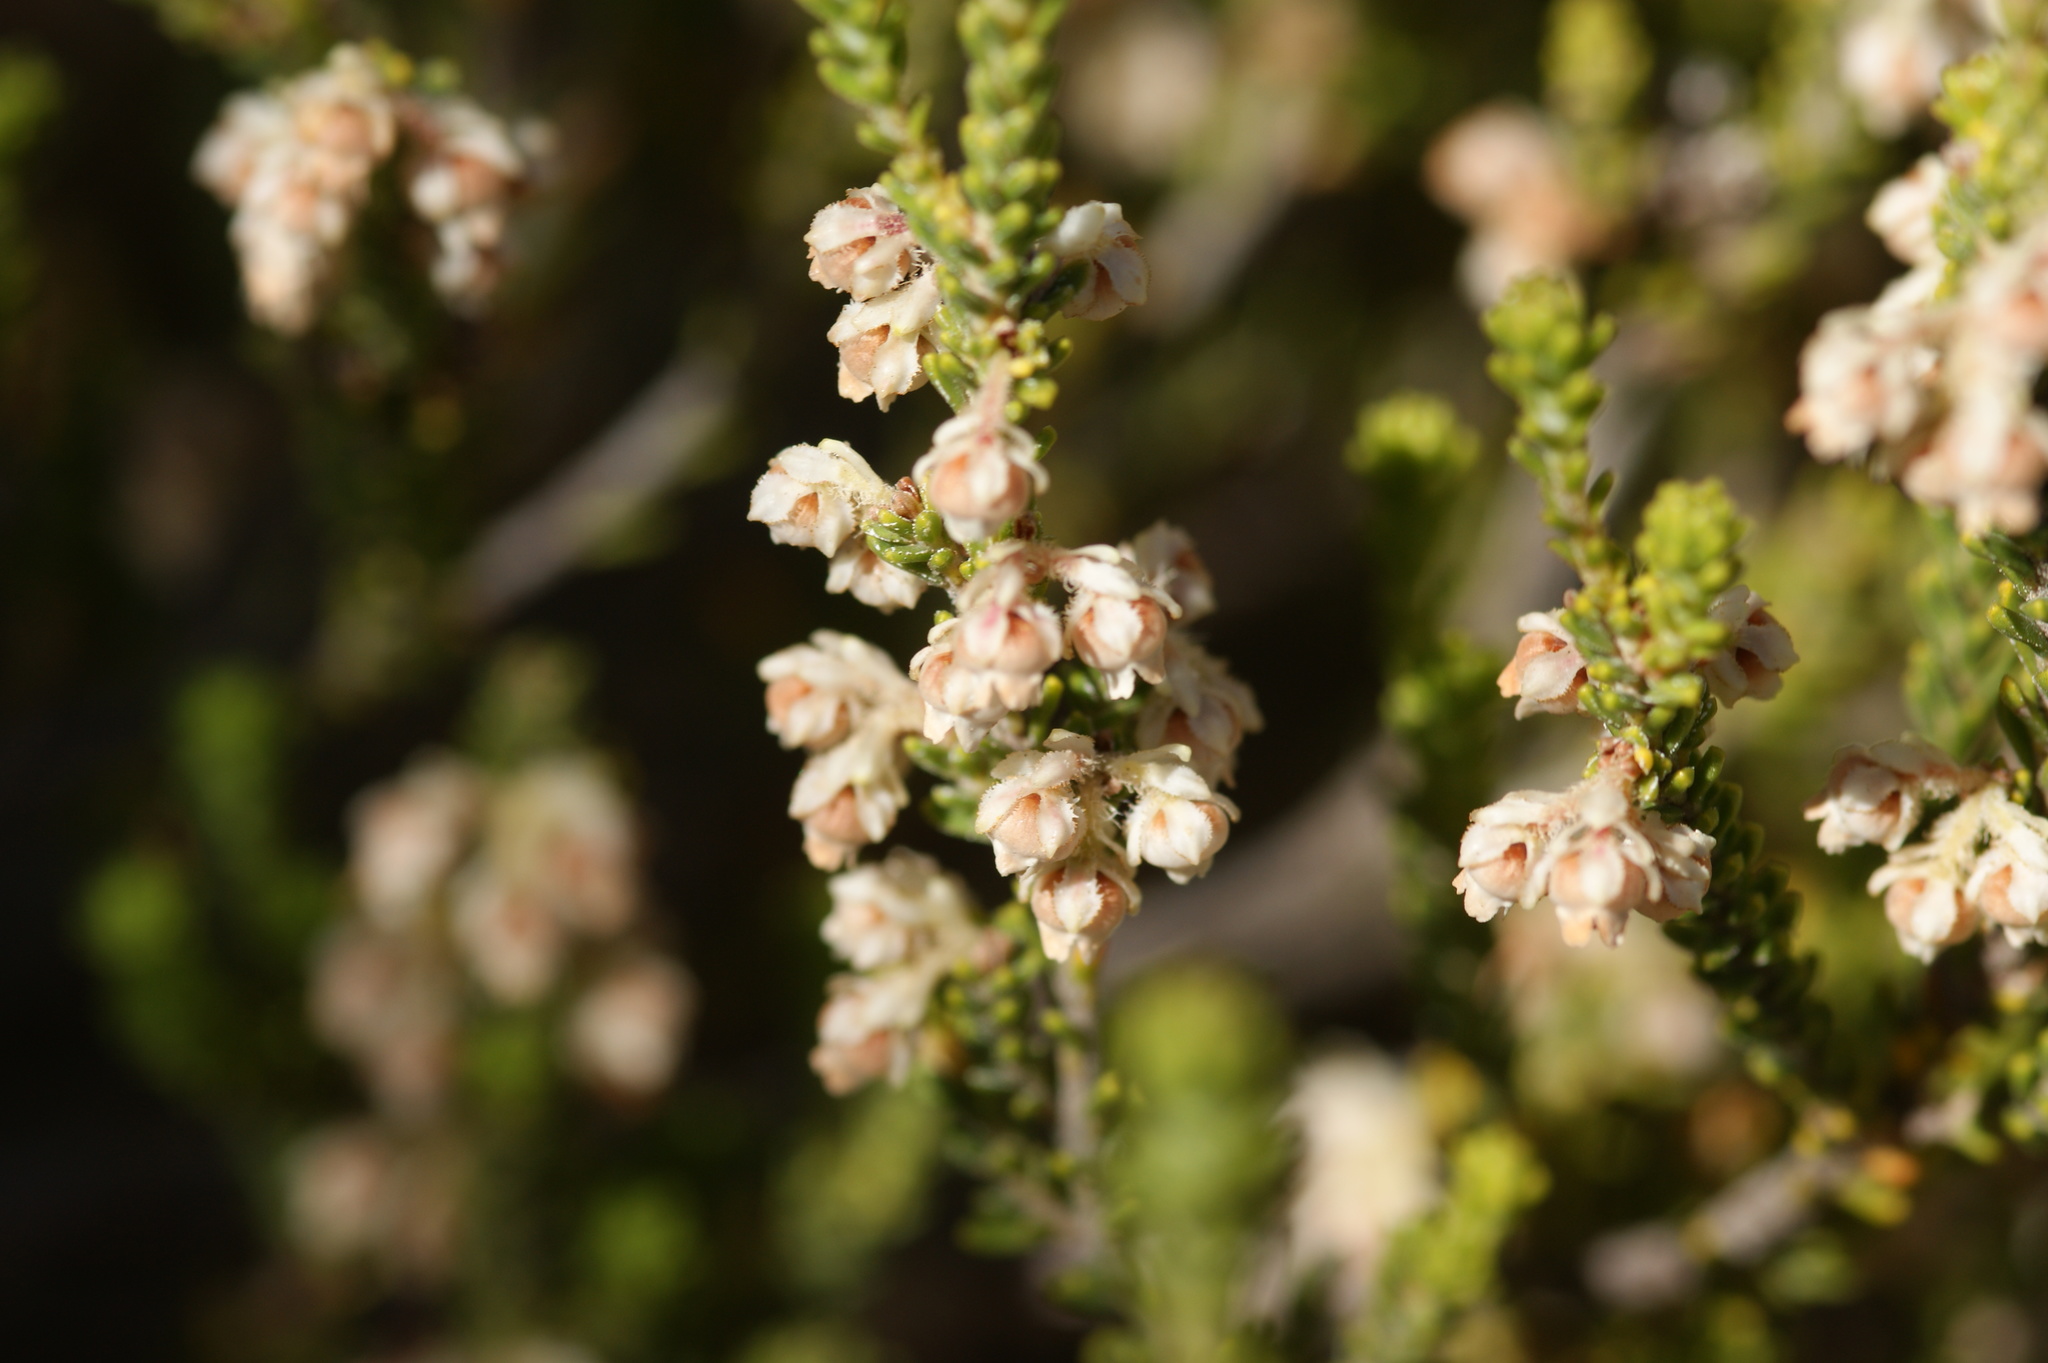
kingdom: Plantae
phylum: Tracheophyta
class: Magnoliopsida
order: Ericales
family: Ericaceae
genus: Erica
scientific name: Erica fimbriata
